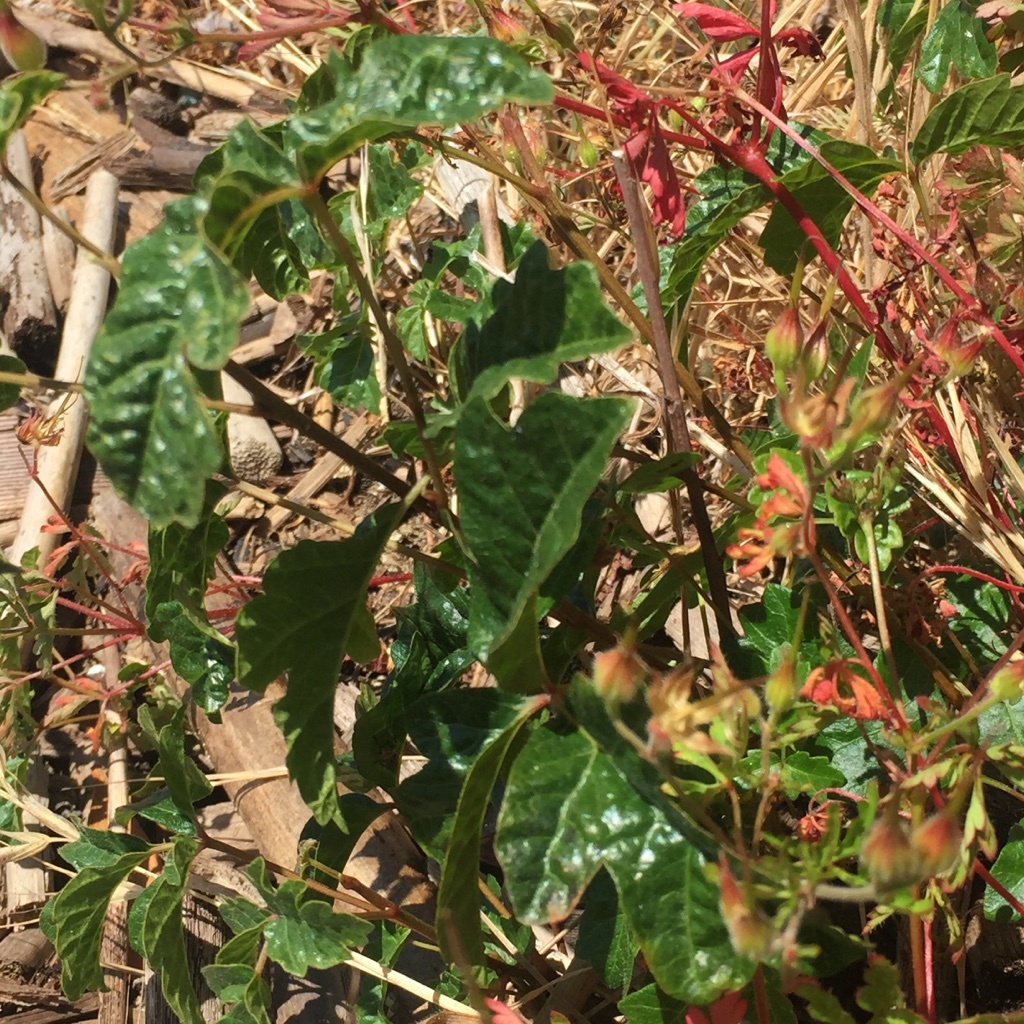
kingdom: Plantae
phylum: Tracheophyta
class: Magnoliopsida
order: Sapindales
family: Anacardiaceae
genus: Toxicodendron
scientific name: Toxicodendron diversilobum
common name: Pacific poison-oak
